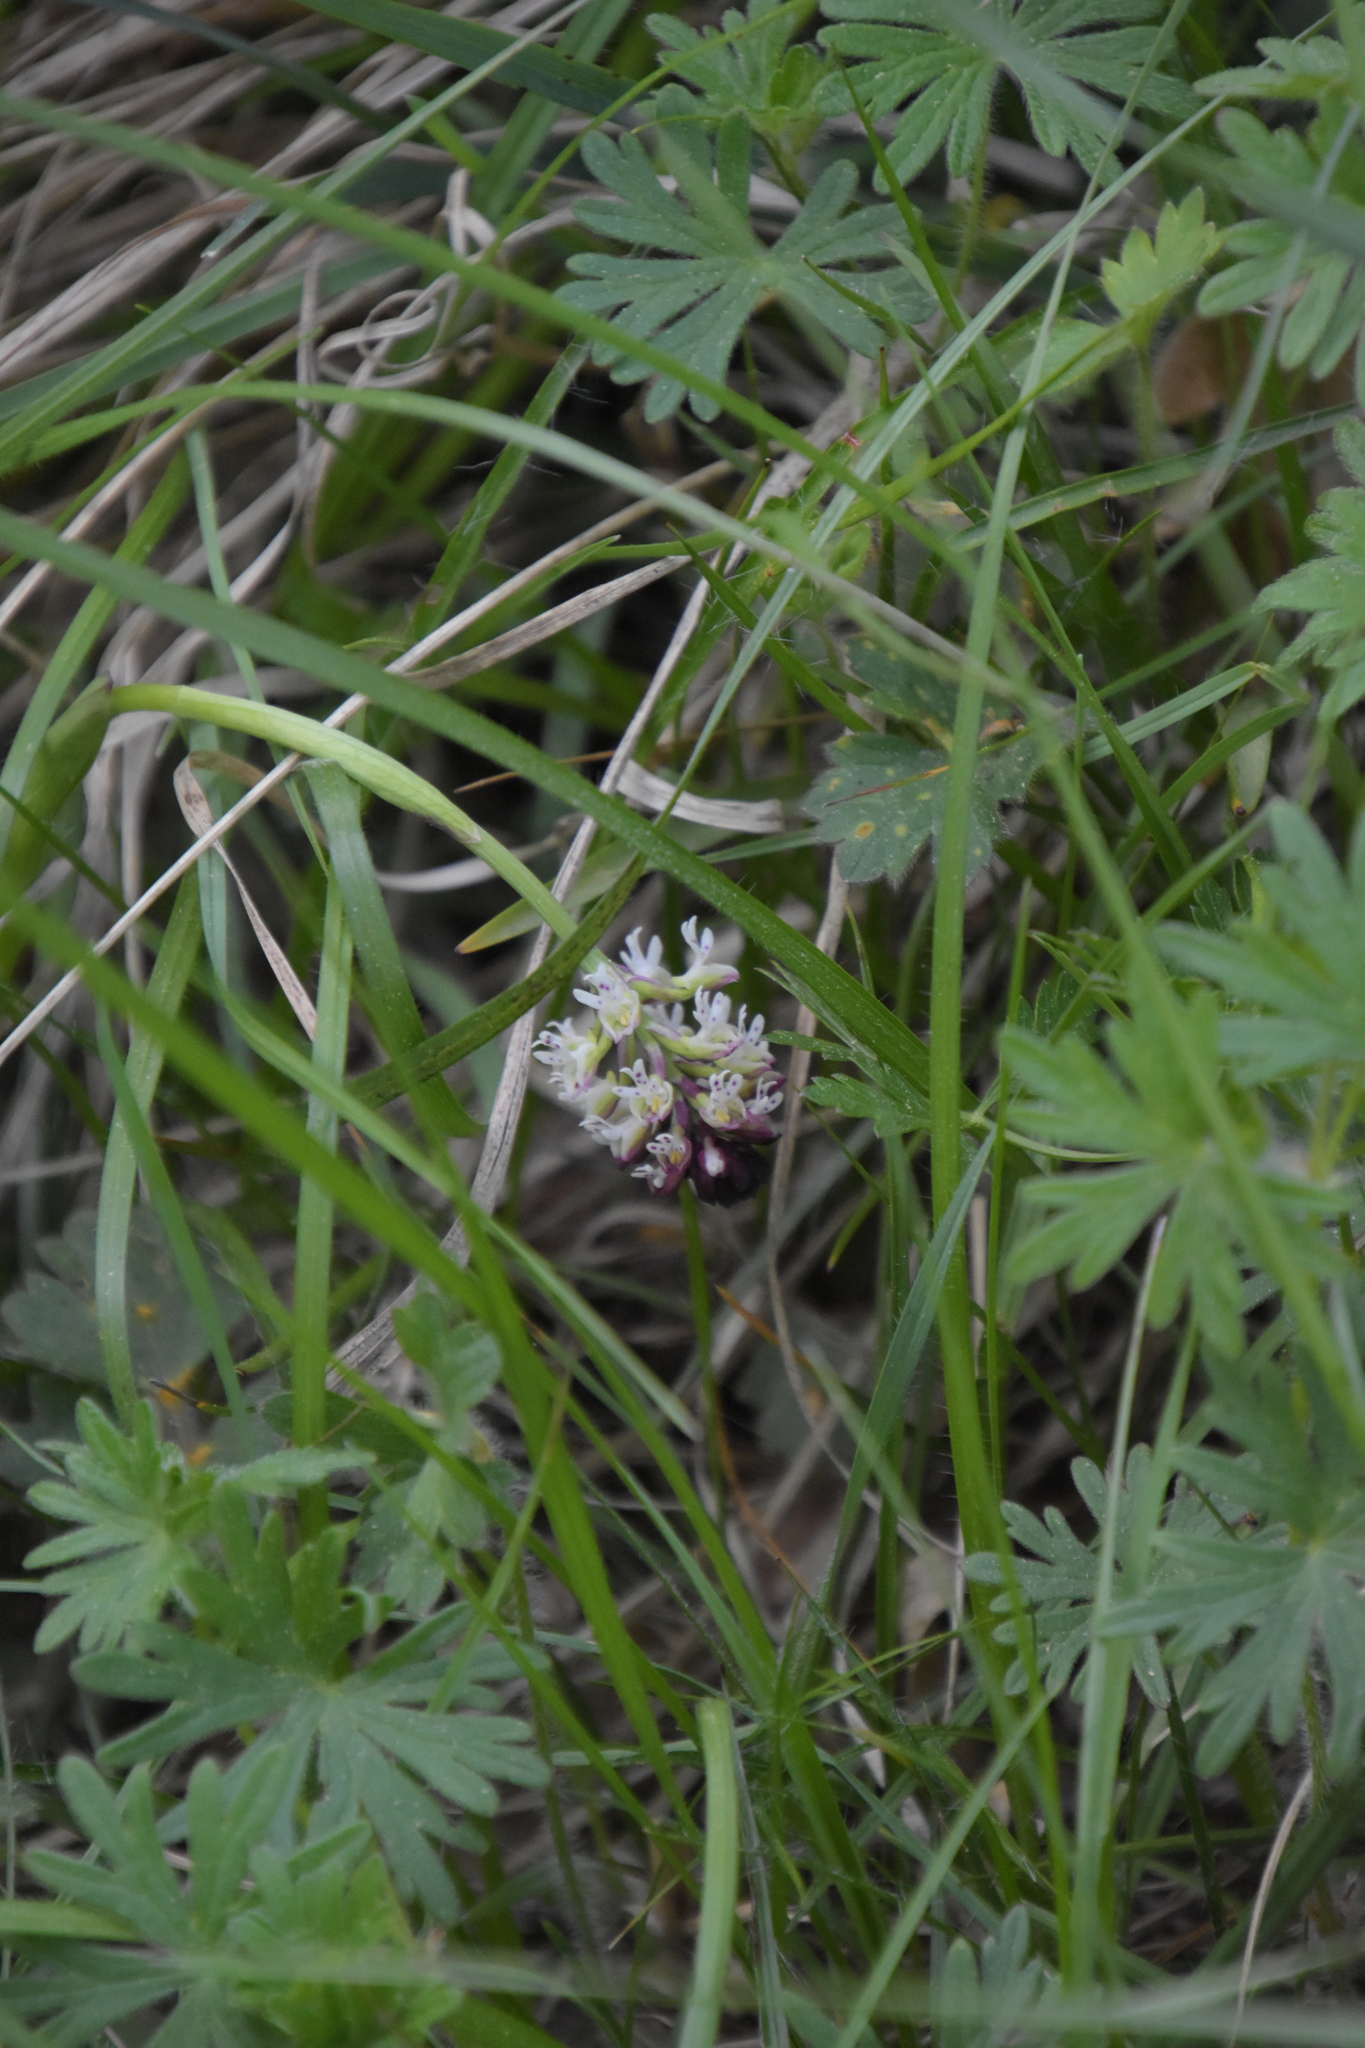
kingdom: Plantae
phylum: Tracheophyta
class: Liliopsida
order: Asparagales
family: Orchidaceae
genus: Neotinea
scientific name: Neotinea ustulata
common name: Burnt orchid
